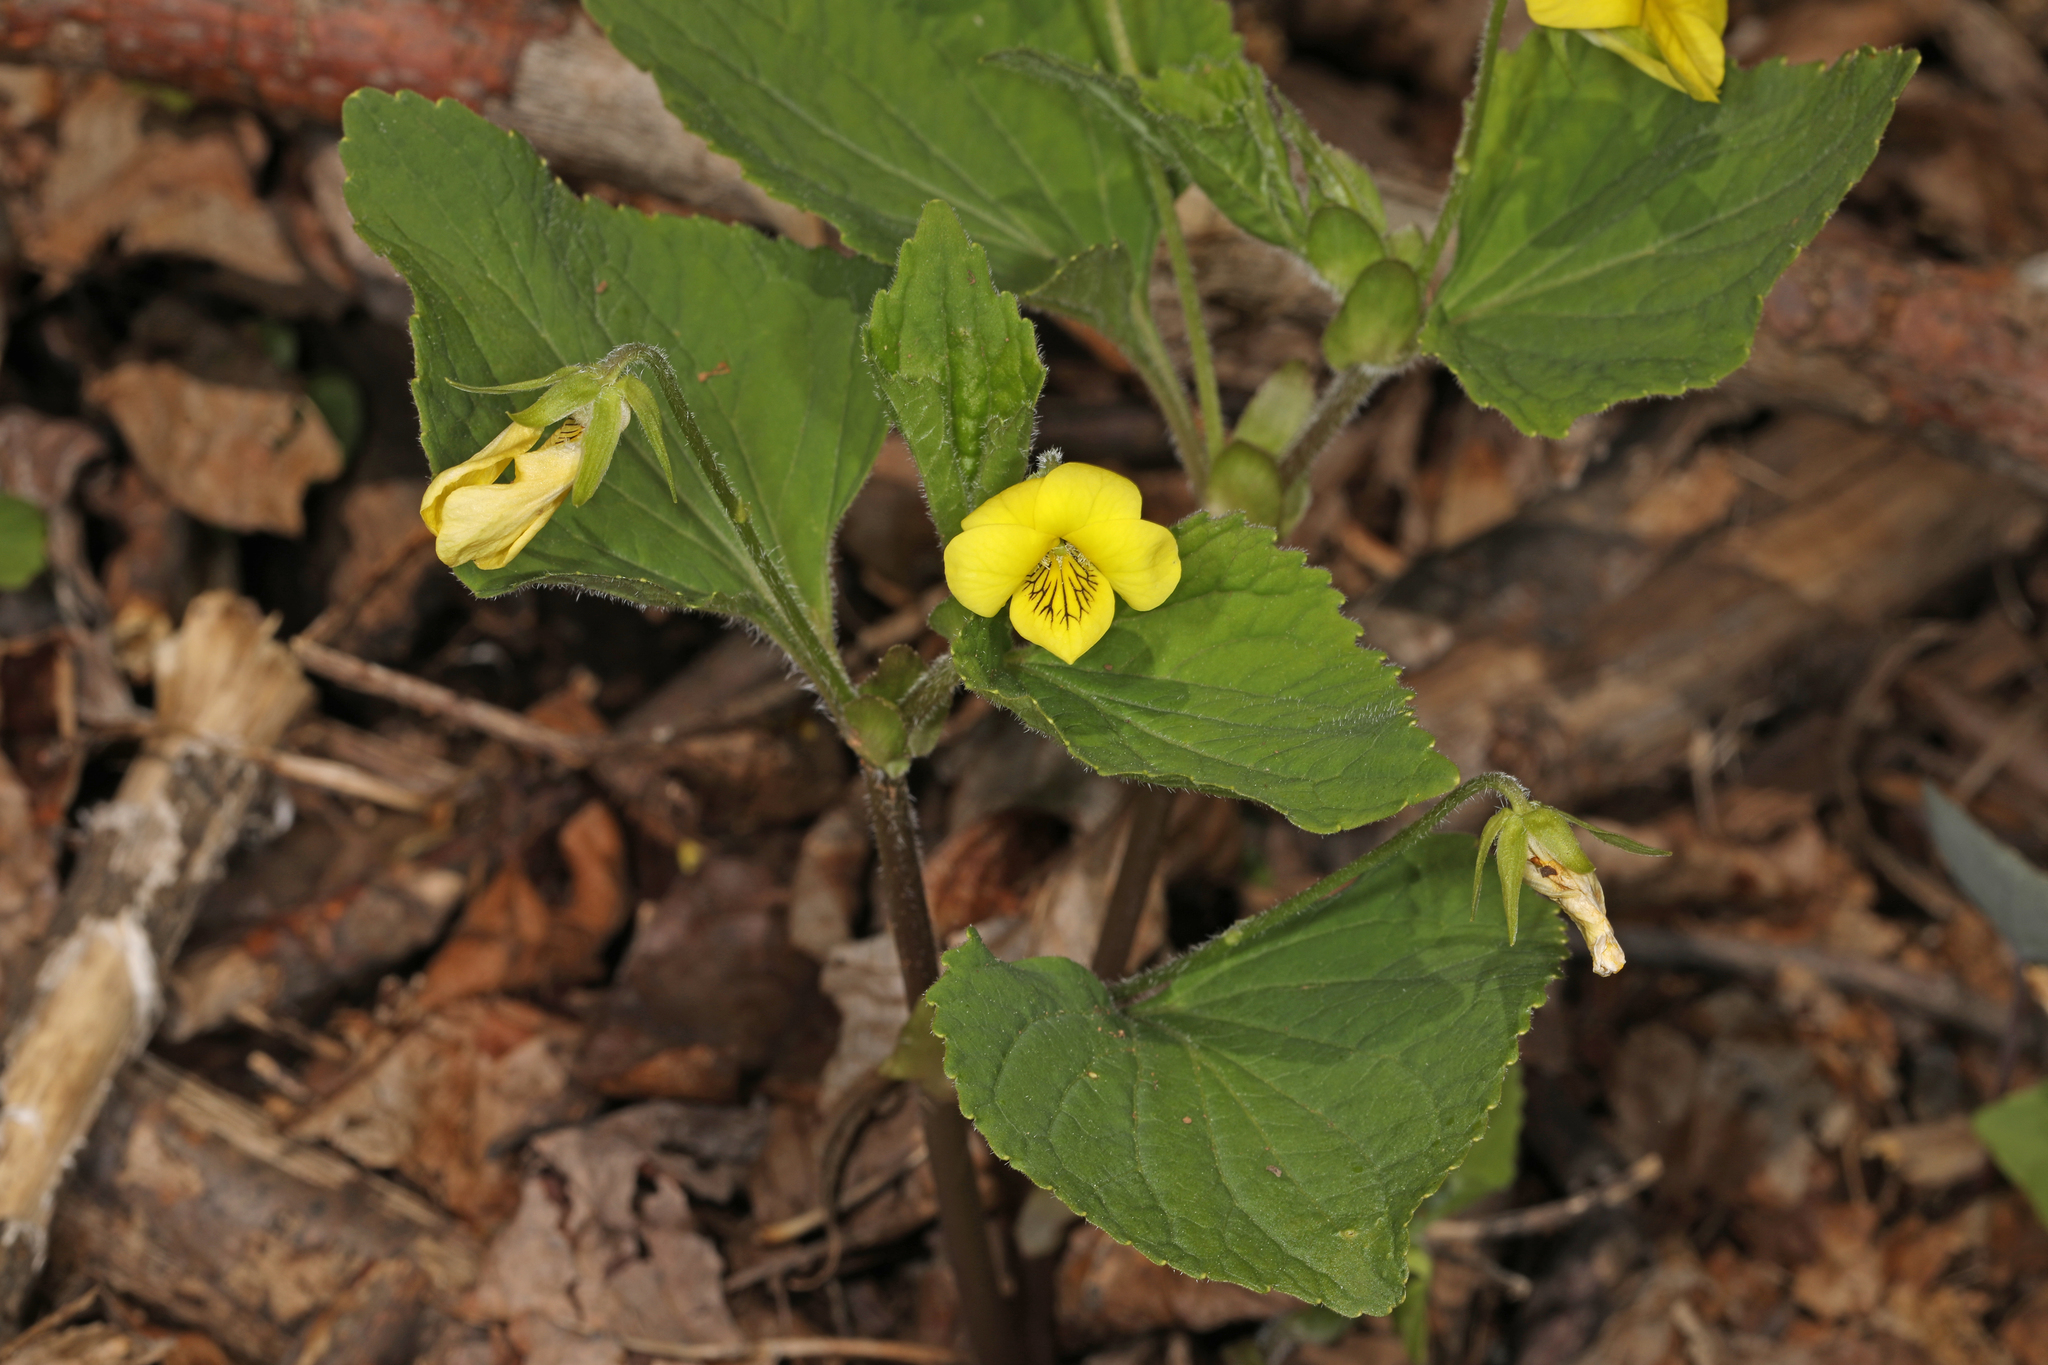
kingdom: Plantae
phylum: Tracheophyta
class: Magnoliopsida
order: Malpighiales
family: Violaceae
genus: Viola
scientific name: Viola eriocarpa
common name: Smooth yellow violet
